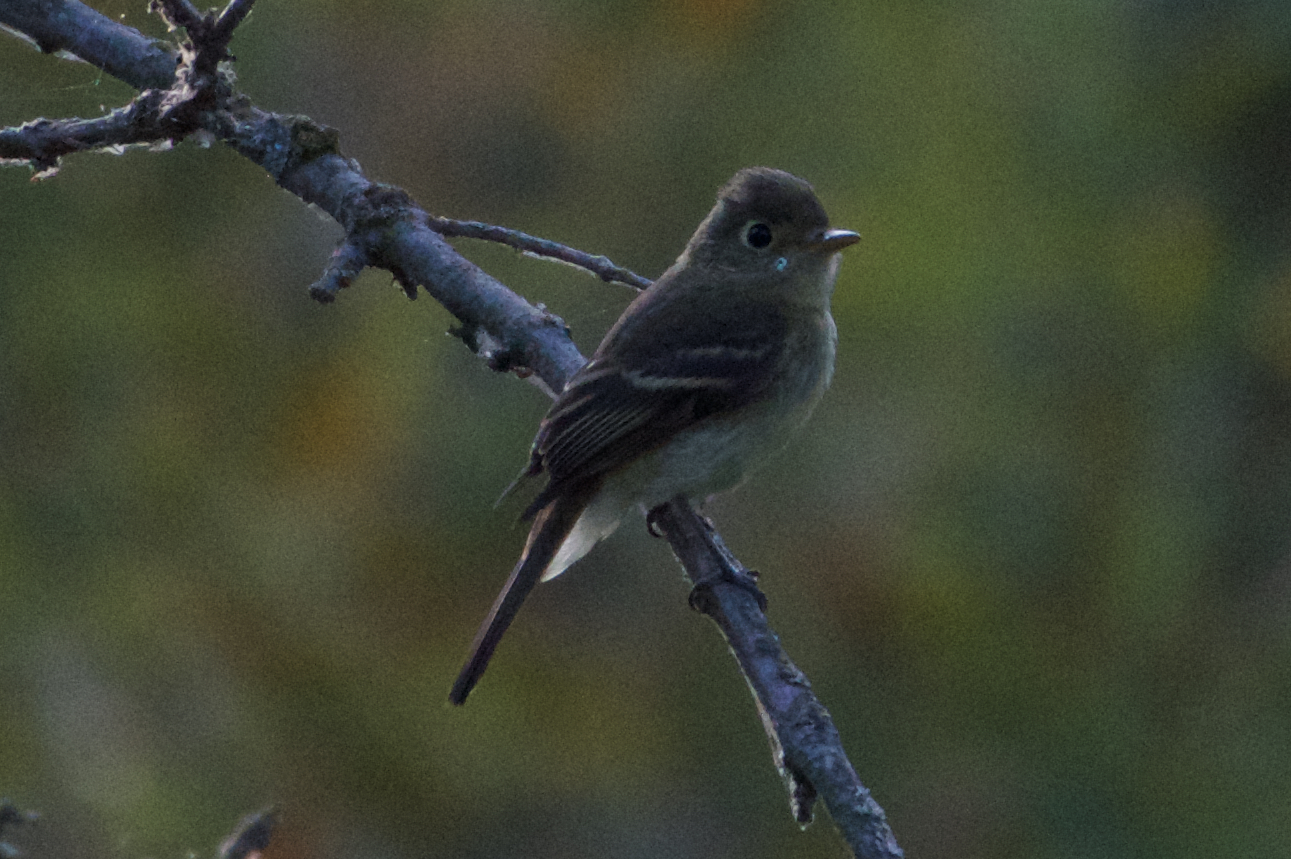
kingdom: Animalia
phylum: Chordata
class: Aves
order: Passeriformes
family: Tyrannidae
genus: Empidonax
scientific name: Empidonax difficilis
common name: Pacific-slope flycatcher
